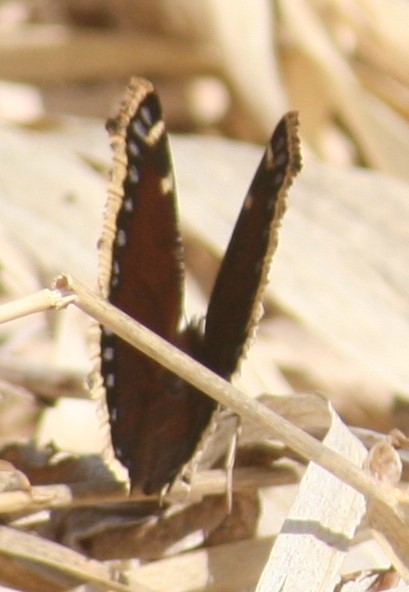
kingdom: Animalia
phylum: Arthropoda
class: Insecta
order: Lepidoptera
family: Nymphalidae
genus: Nymphalis
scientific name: Nymphalis antiopa
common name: Camberwell beauty
